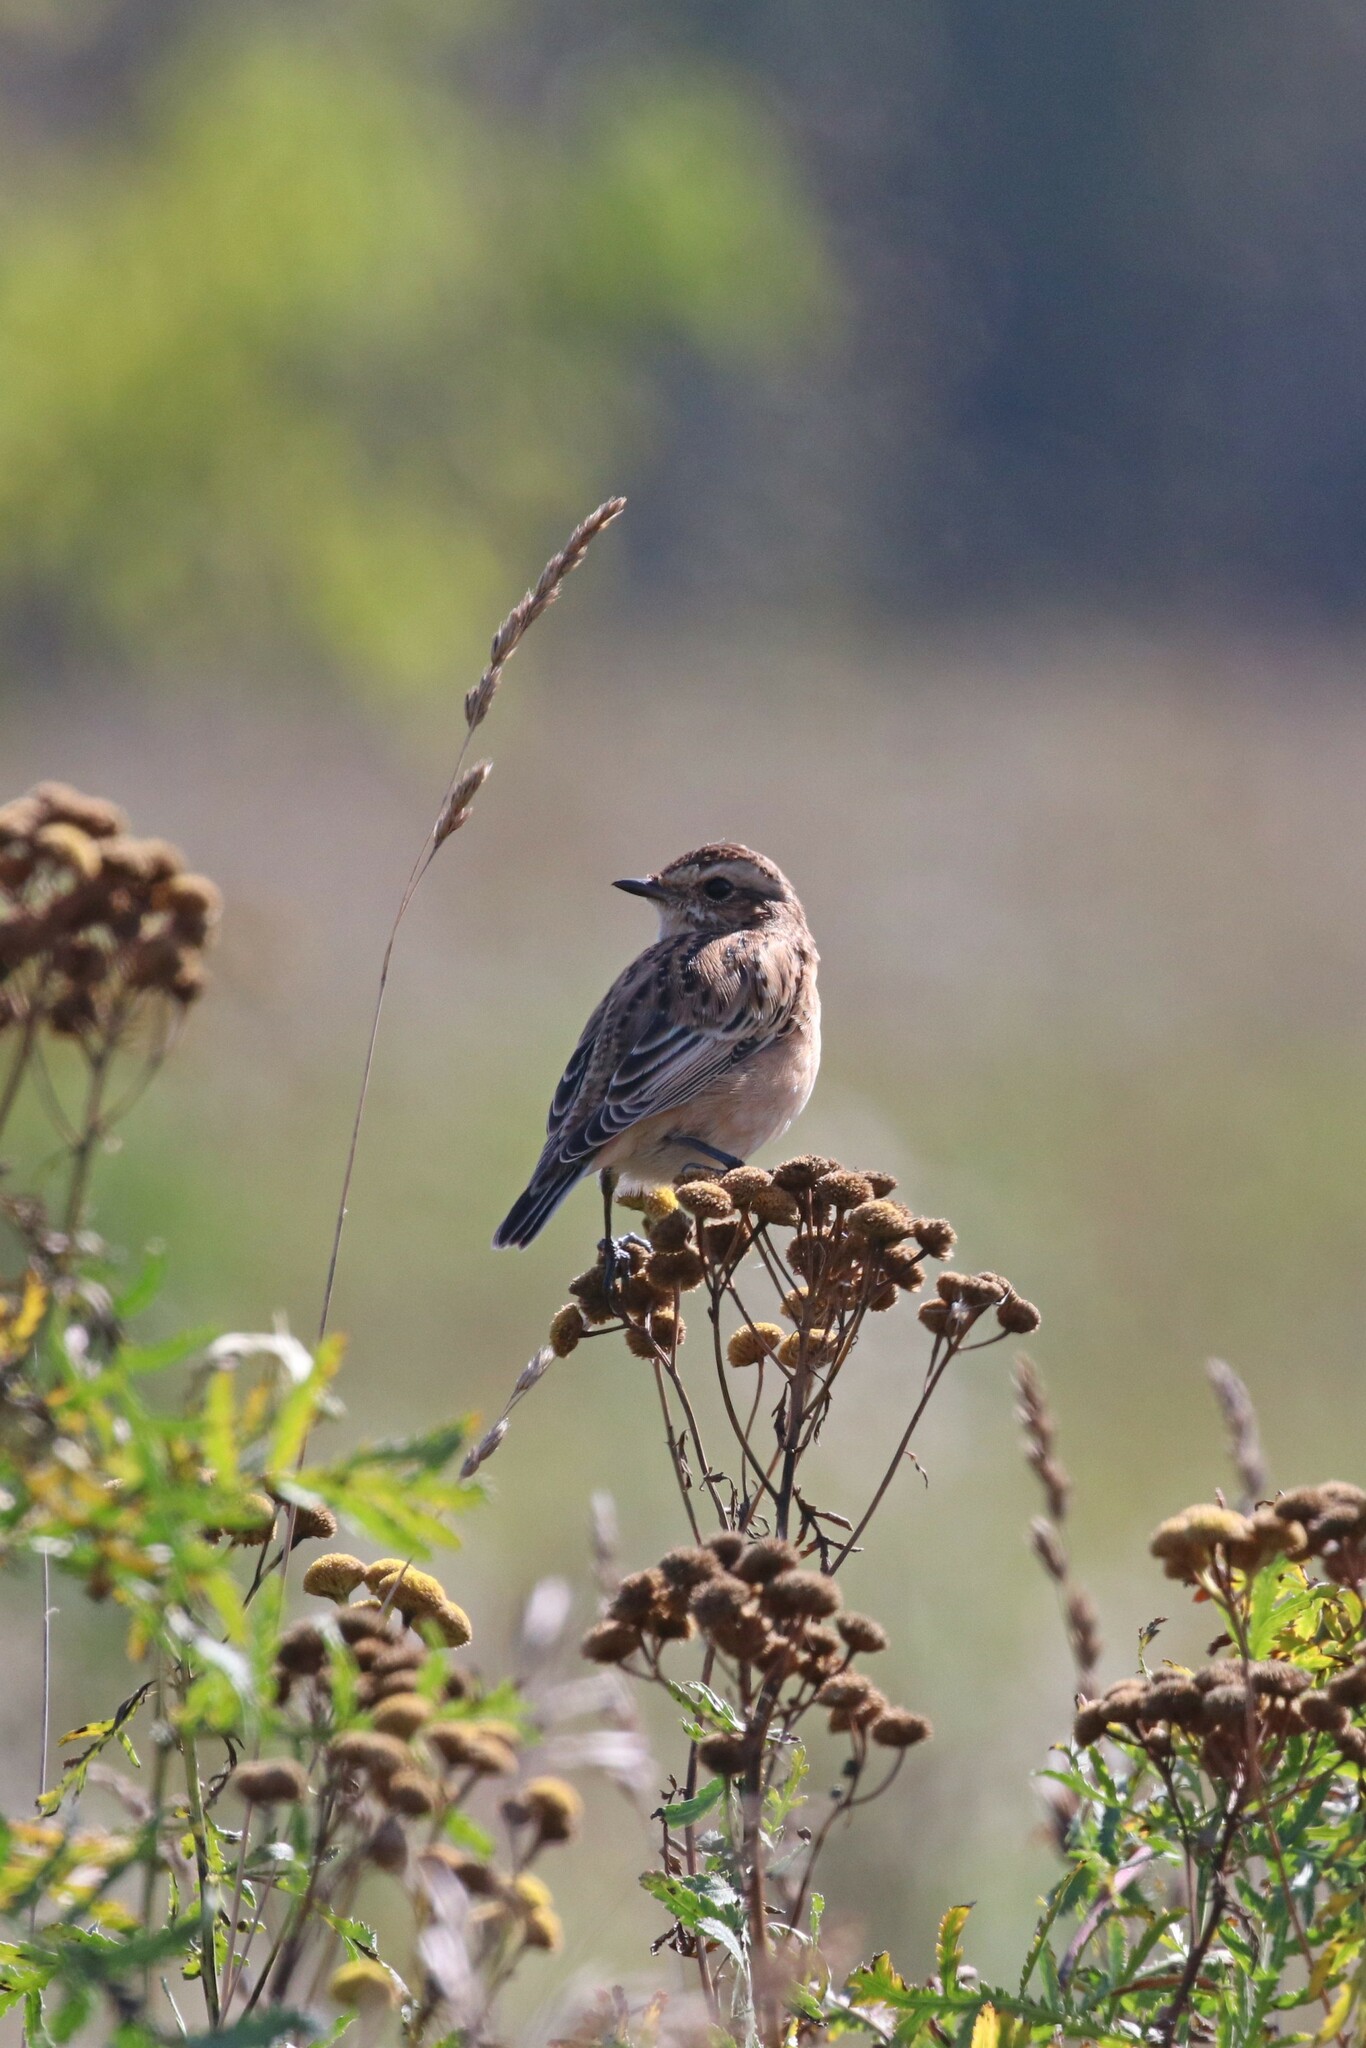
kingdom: Animalia
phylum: Chordata
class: Aves
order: Passeriformes
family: Muscicapidae
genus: Saxicola
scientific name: Saxicola rubetra
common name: Whinchat
